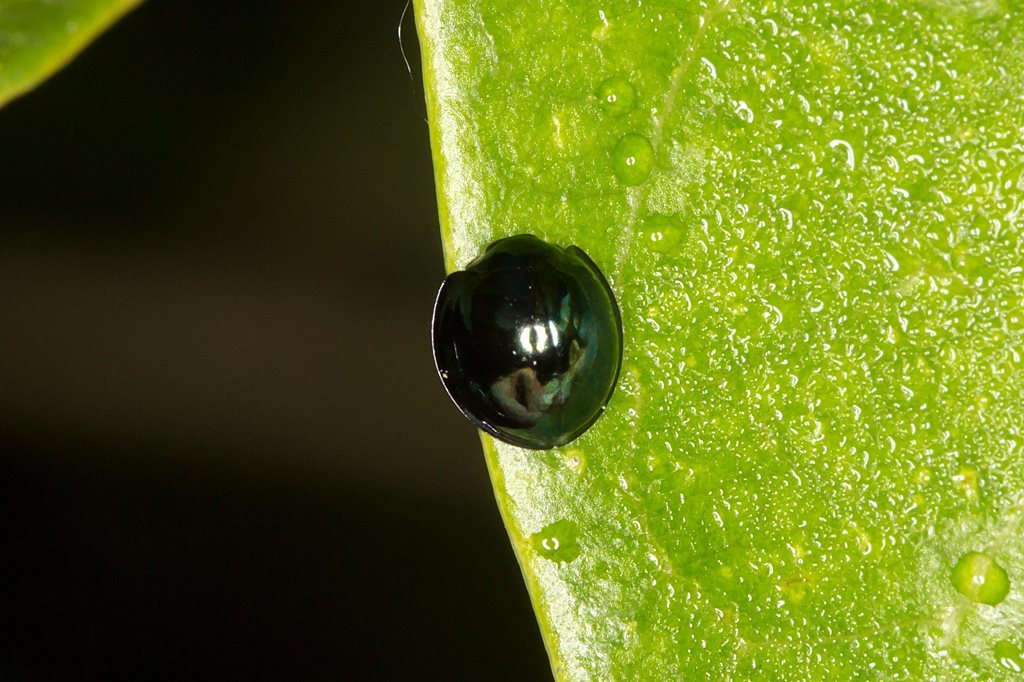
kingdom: Animalia
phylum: Arthropoda
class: Insecta
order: Coleoptera
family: Coccinellidae
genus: Halmus
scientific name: Halmus chalybeus
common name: Steel blue ladybird beetle
